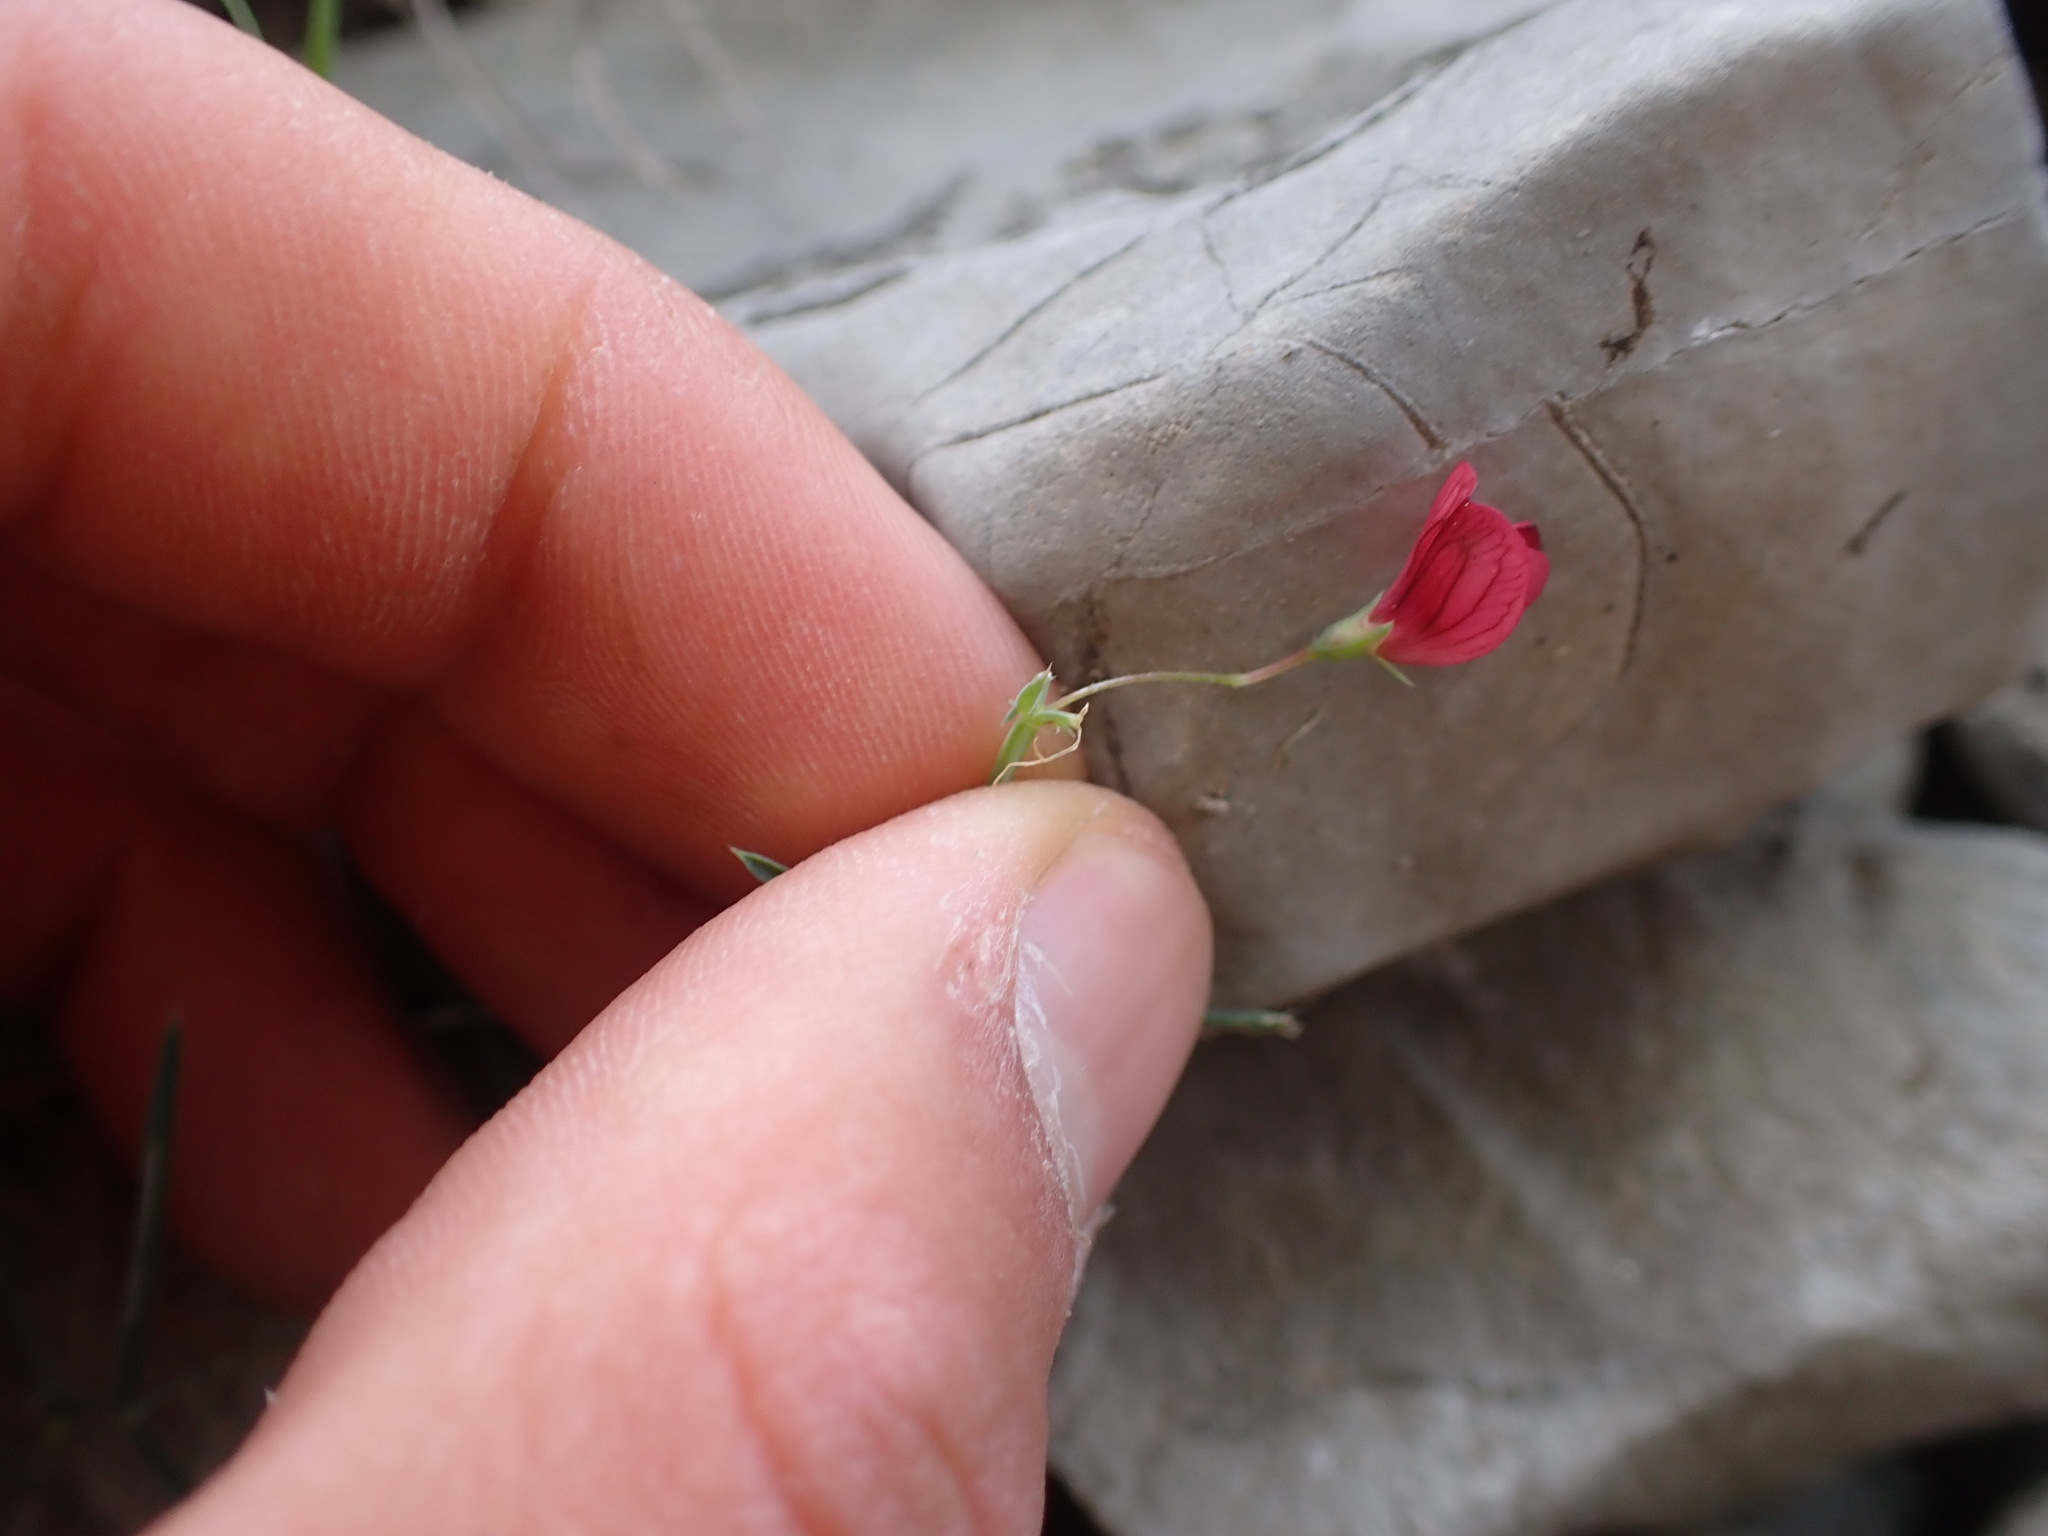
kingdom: Plantae
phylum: Tracheophyta
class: Magnoliopsida
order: Fabales
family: Fabaceae
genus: Lathyrus
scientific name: Lathyrus setifolius
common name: Brown vetchling
